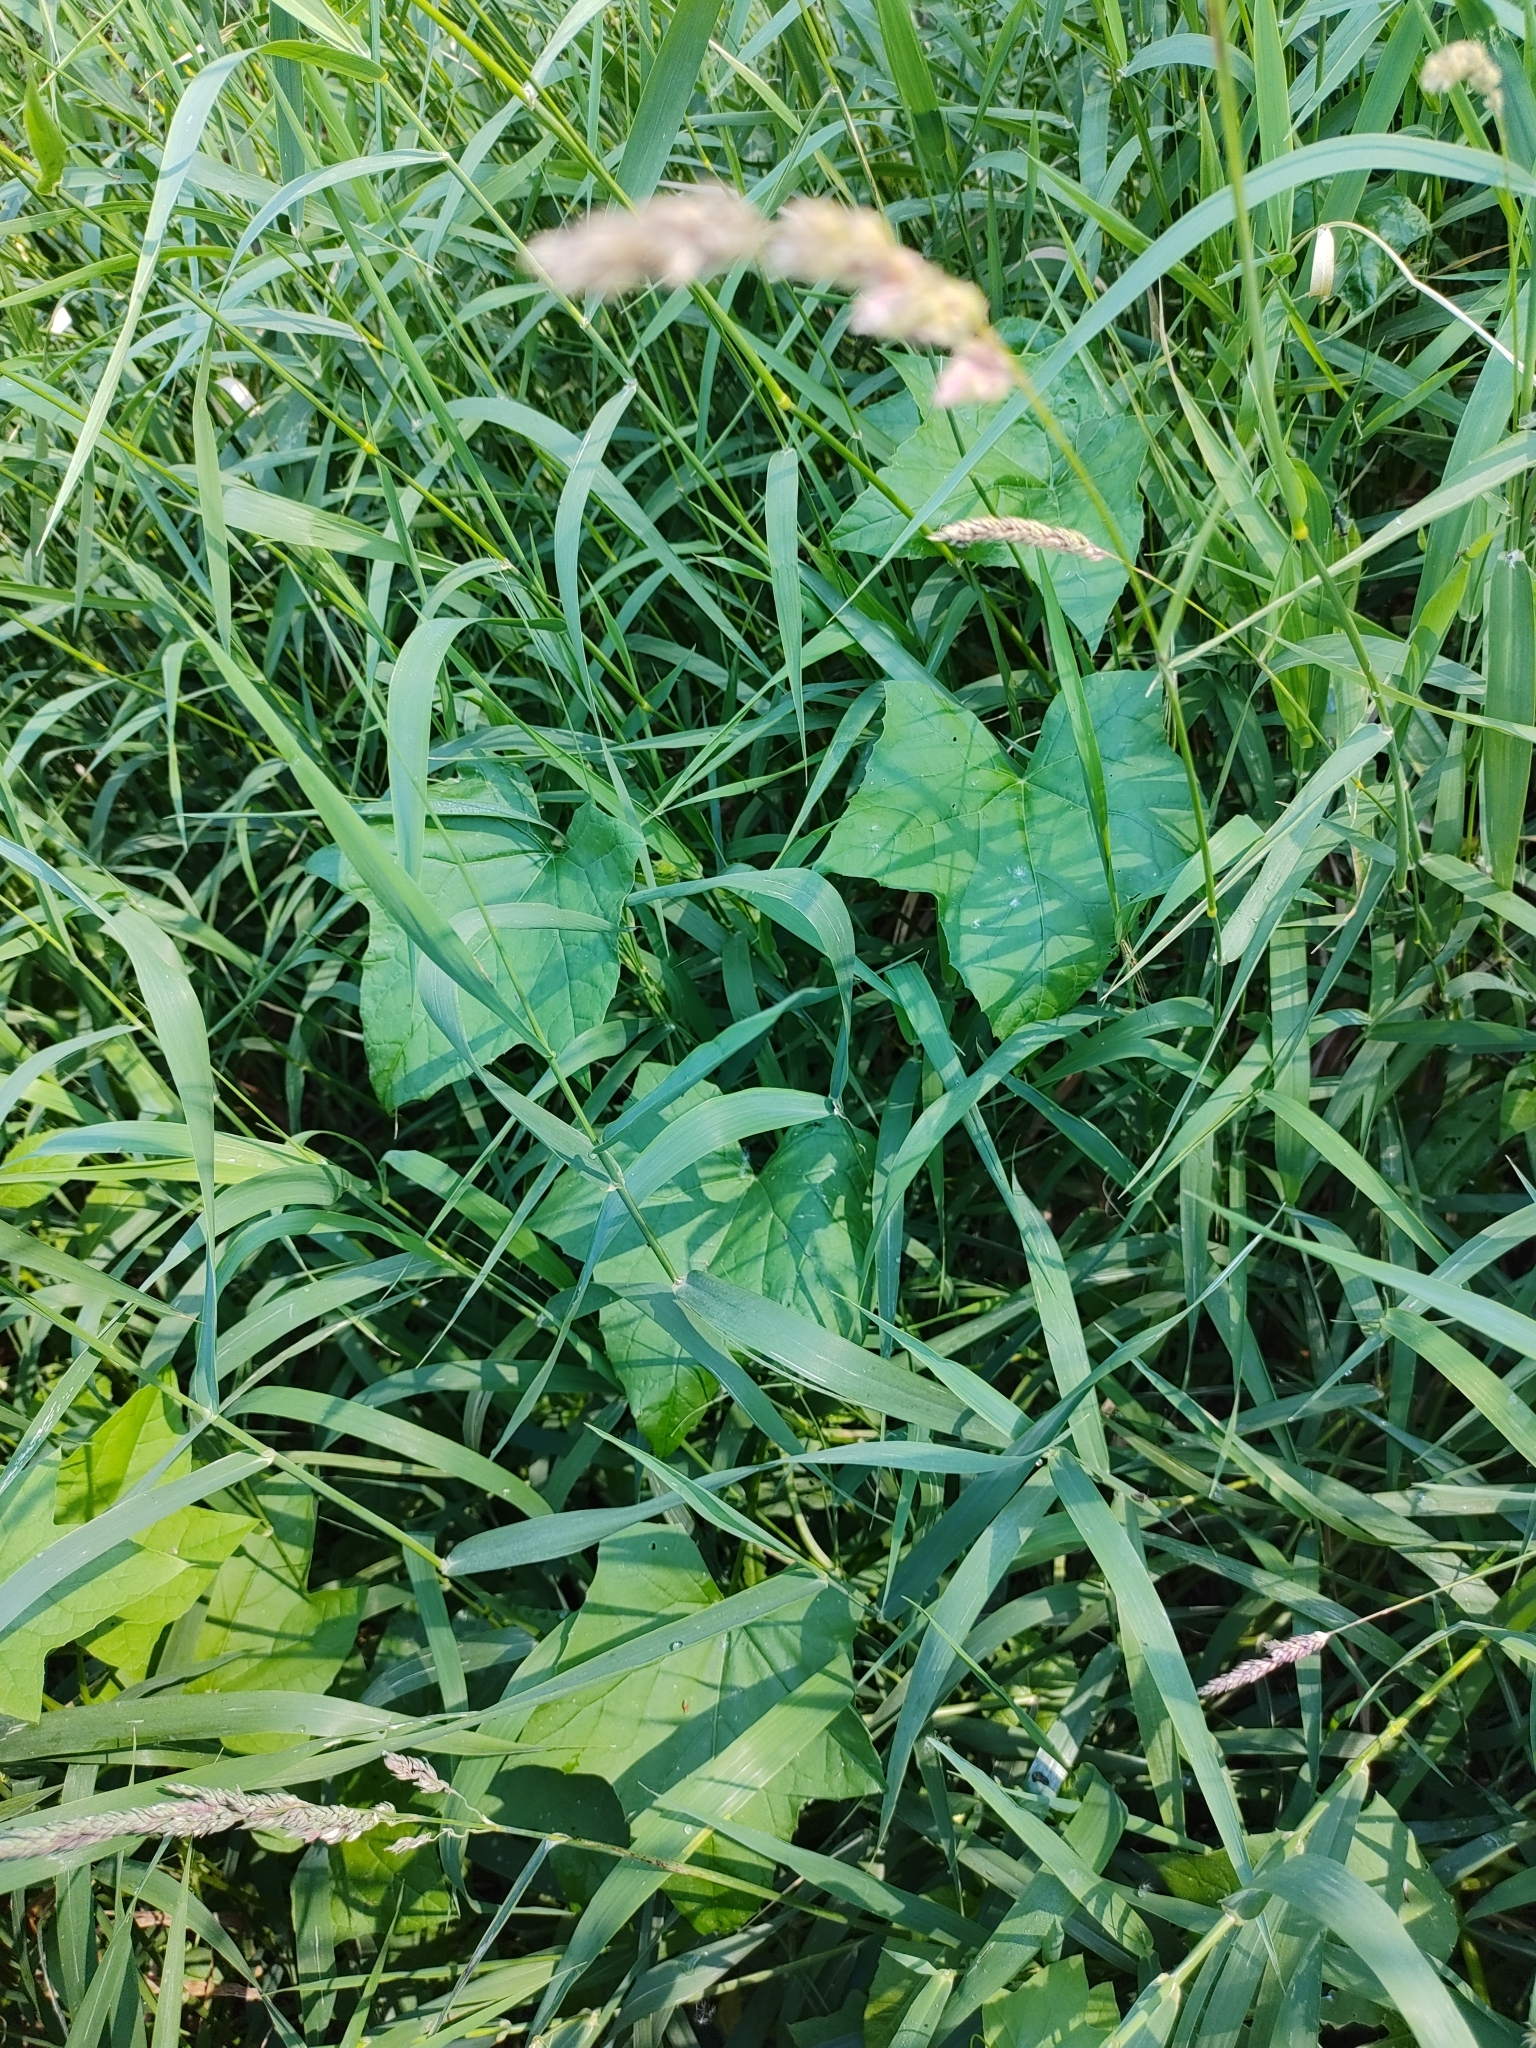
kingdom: Plantae
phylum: Tracheophyta
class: Magnoliopsida
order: Cucurbitales
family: Cucurbitaceae
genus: Echinocystis
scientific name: Echinocystis lobata
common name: Wild cucumber
